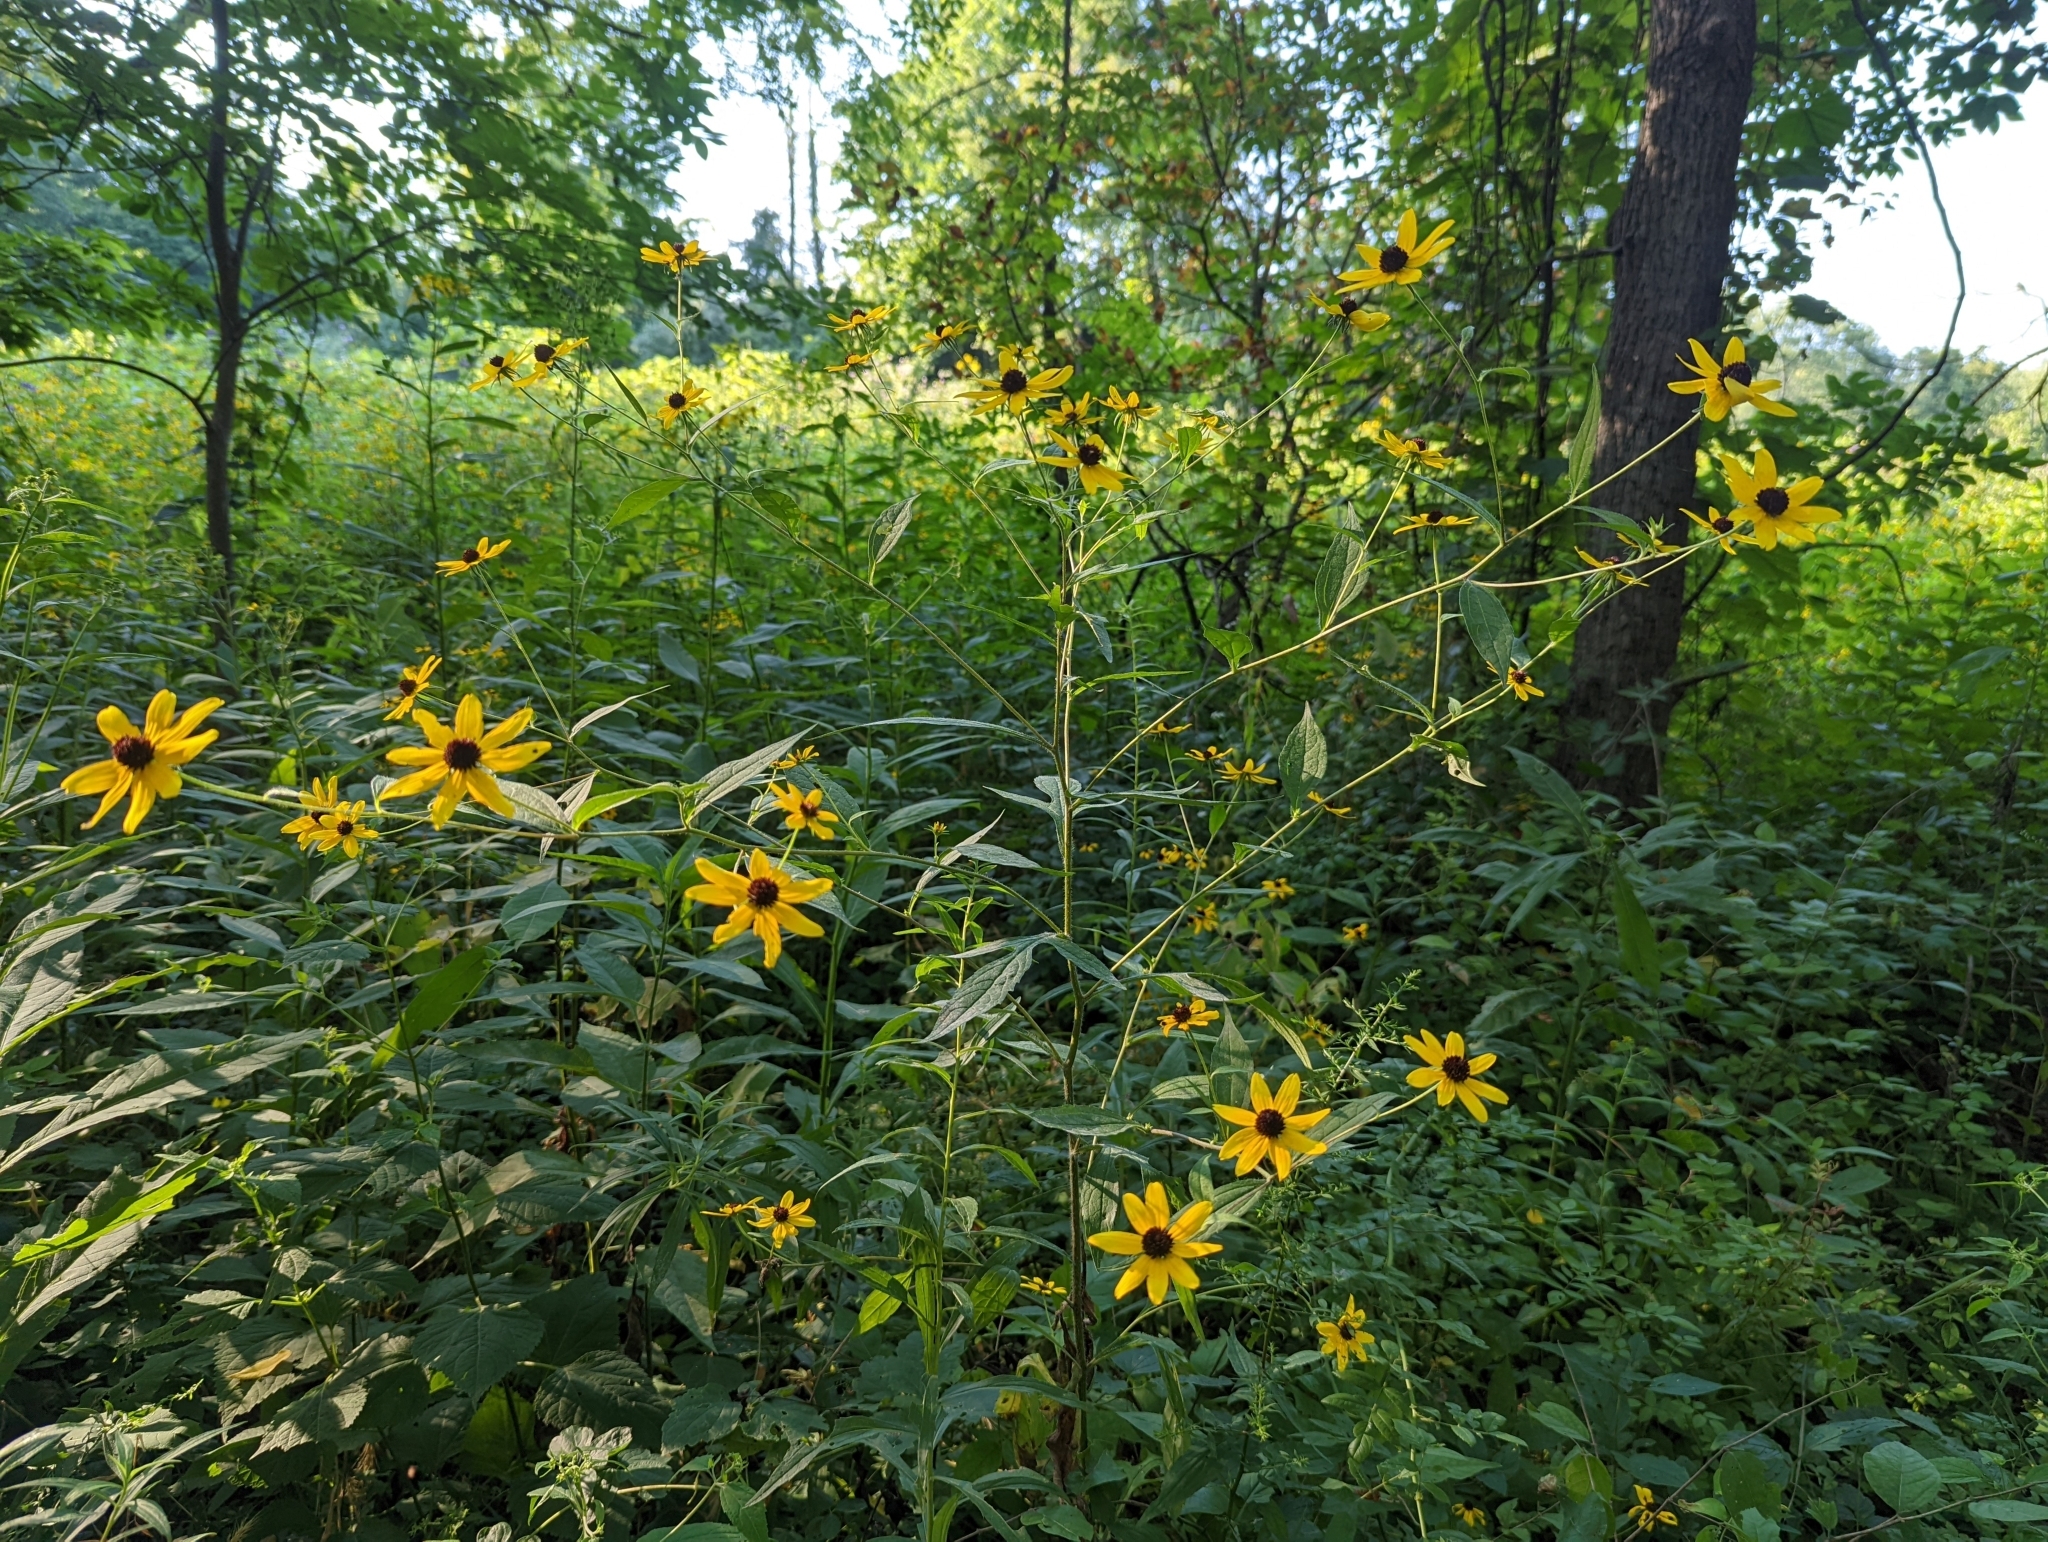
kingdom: Plantae
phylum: Tracheophyta
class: Magnoliopsida
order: Asterales
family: Asteraceae
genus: Rudbeckia
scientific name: Rudbeckia triloba
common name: Thin-leaved coneflower
